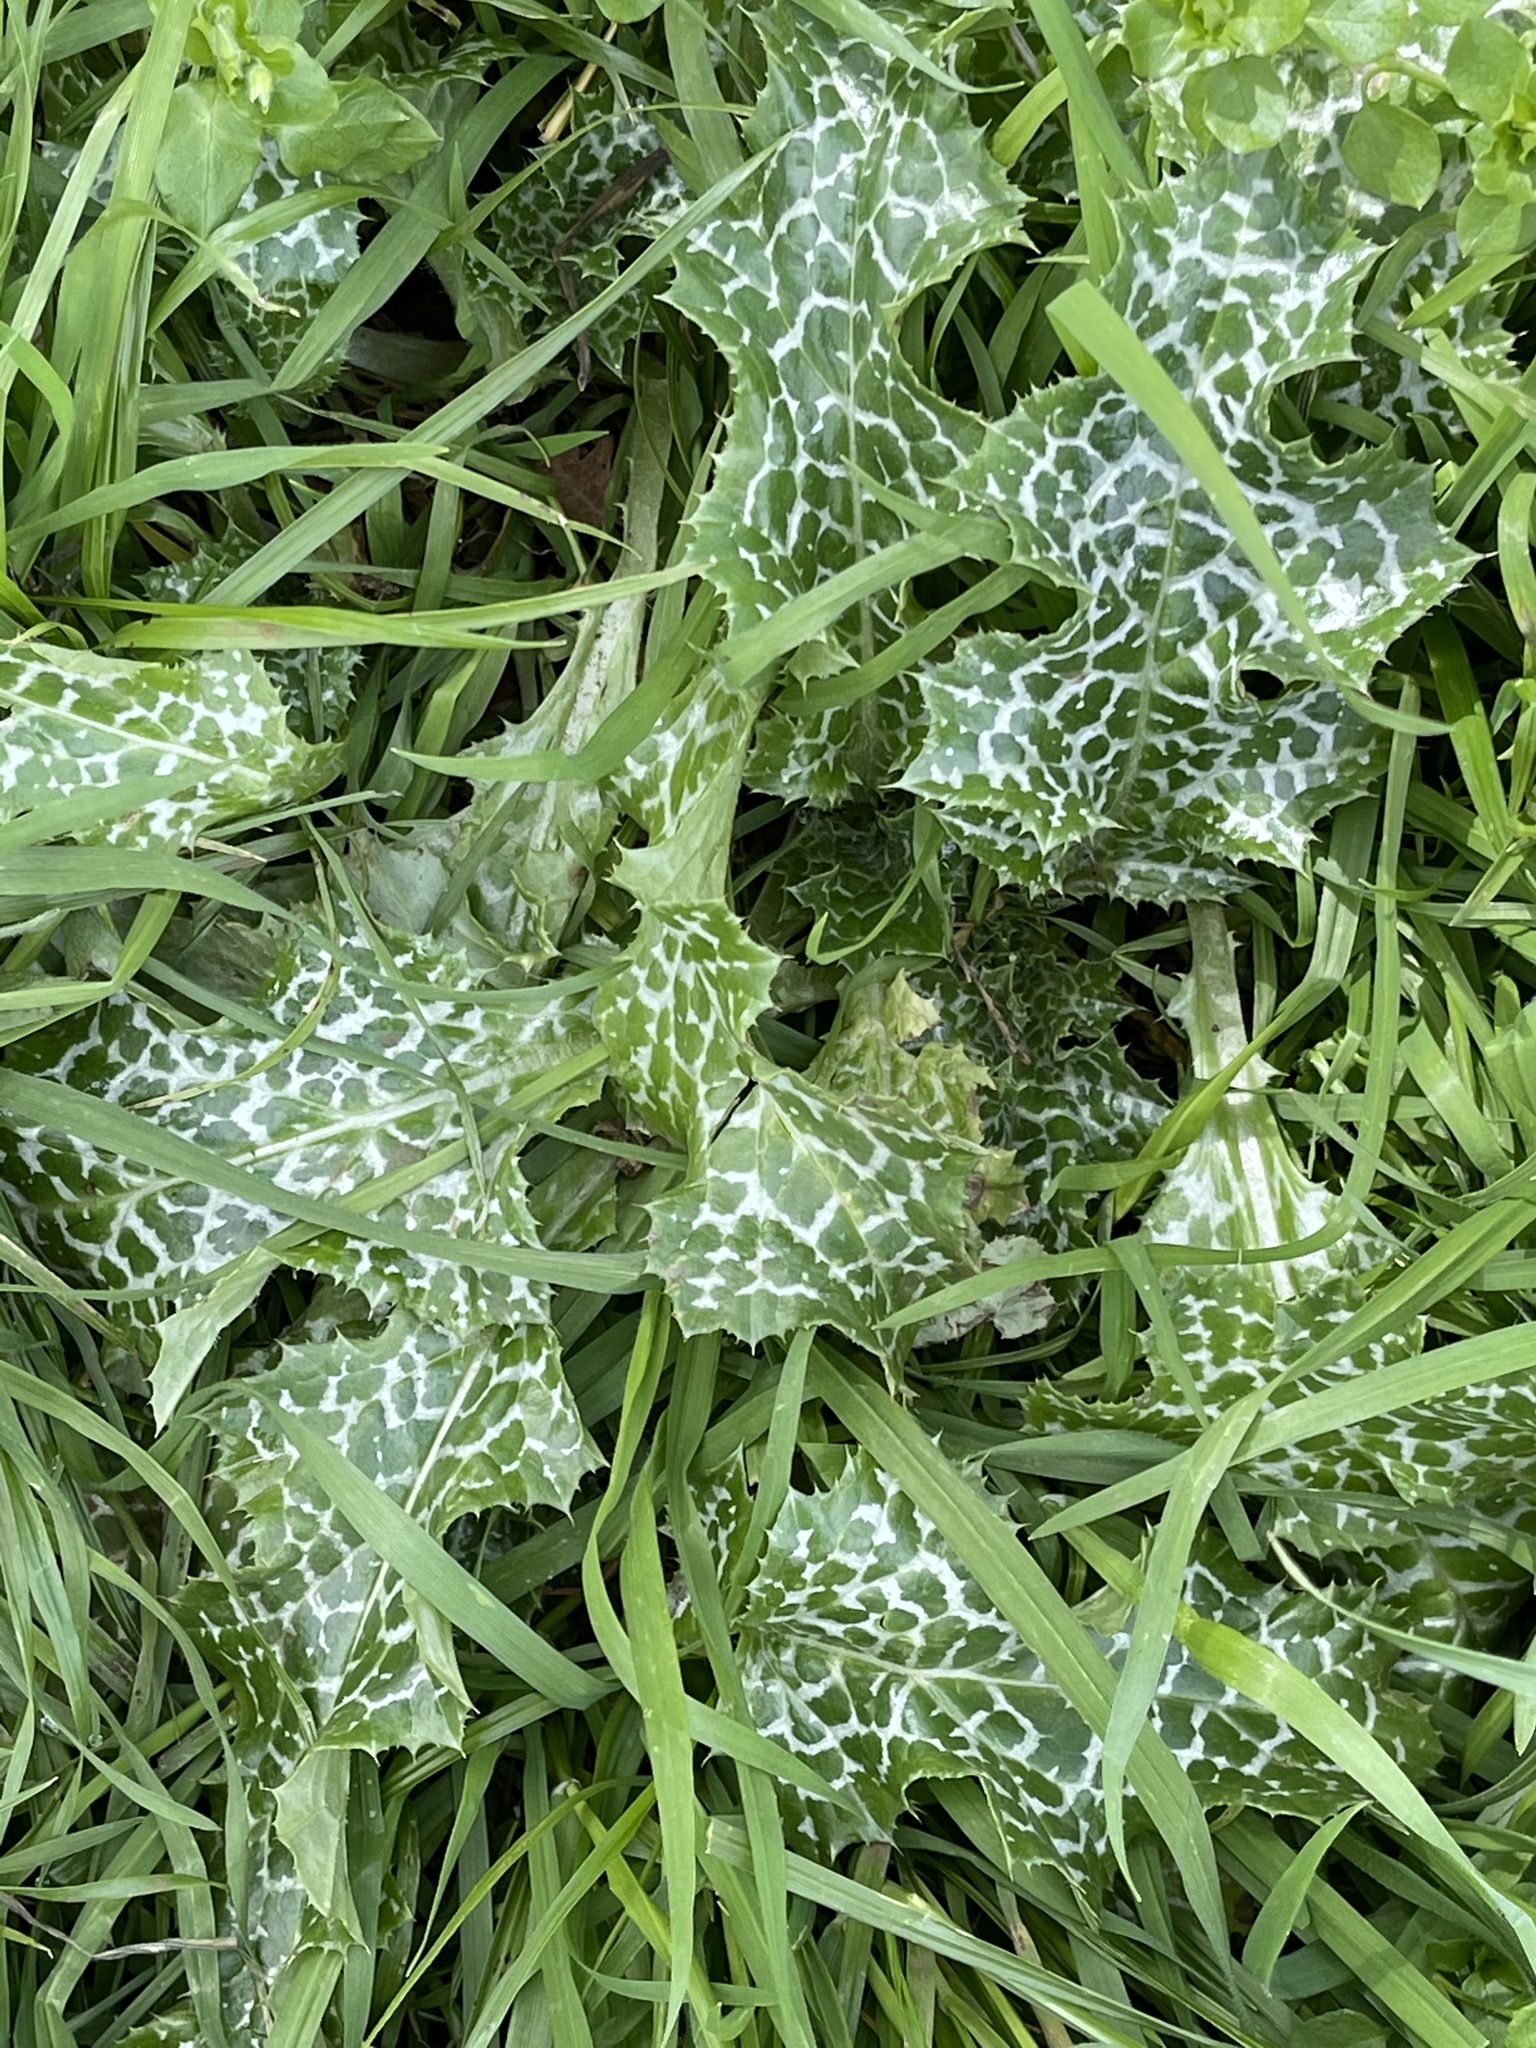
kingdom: Plantae
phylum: Tracheophyta
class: Magnoliopsida
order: Asterales
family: Asteraceae
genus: Silybum
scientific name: Silybum marianum
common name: Milk thistle
